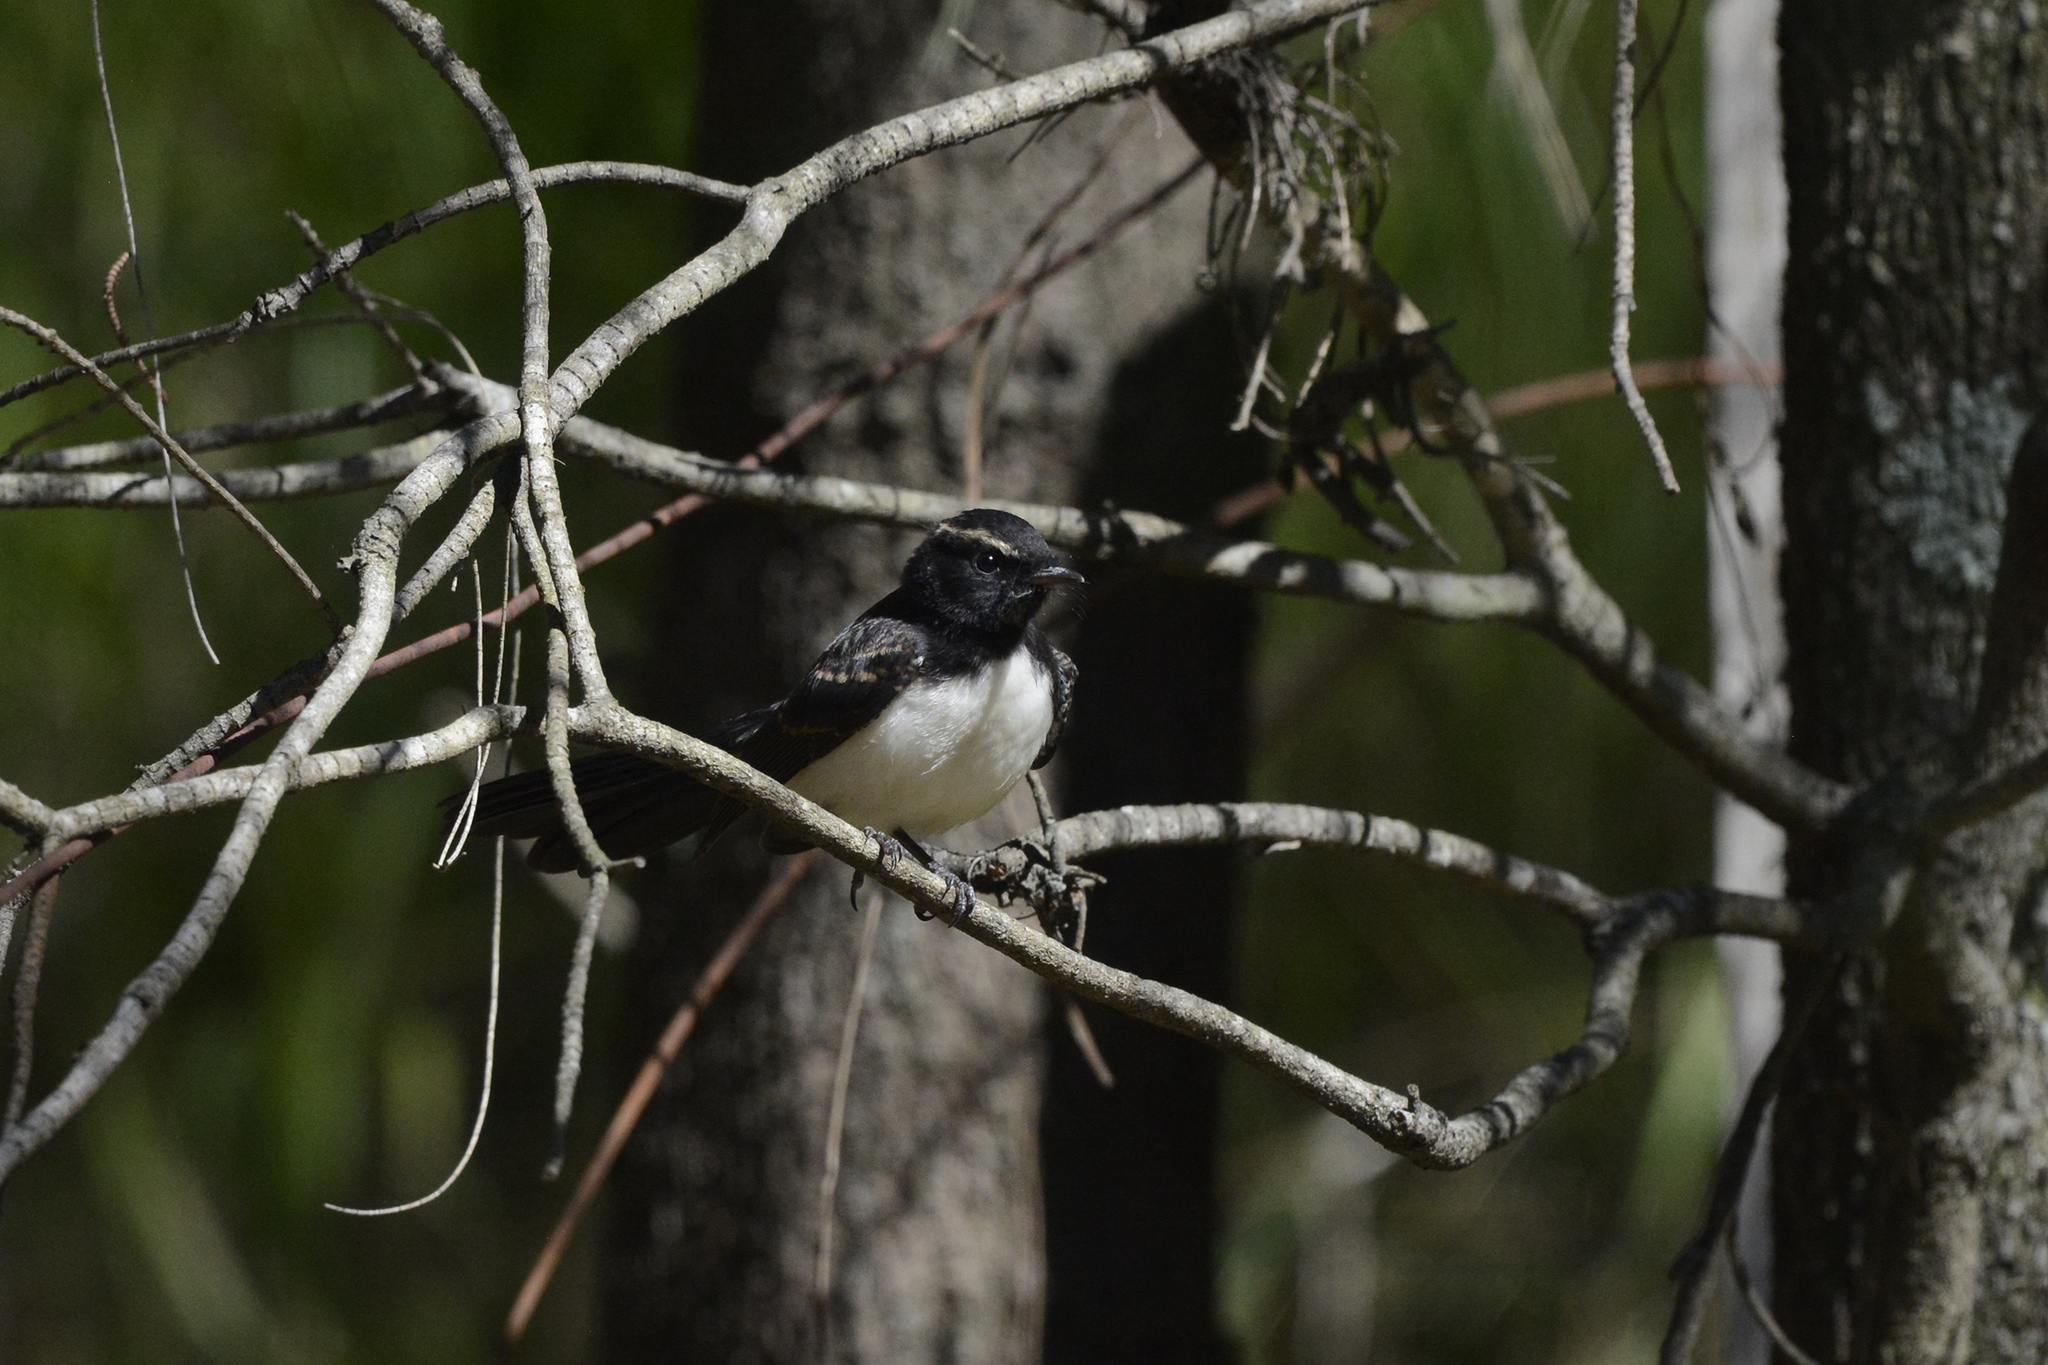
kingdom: Animalia
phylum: Chordata
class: Aves
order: Passeriformes
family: Rhipiduridae
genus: Rhipidura
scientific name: Rhipidura leucophrys
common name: Willie wagtail
